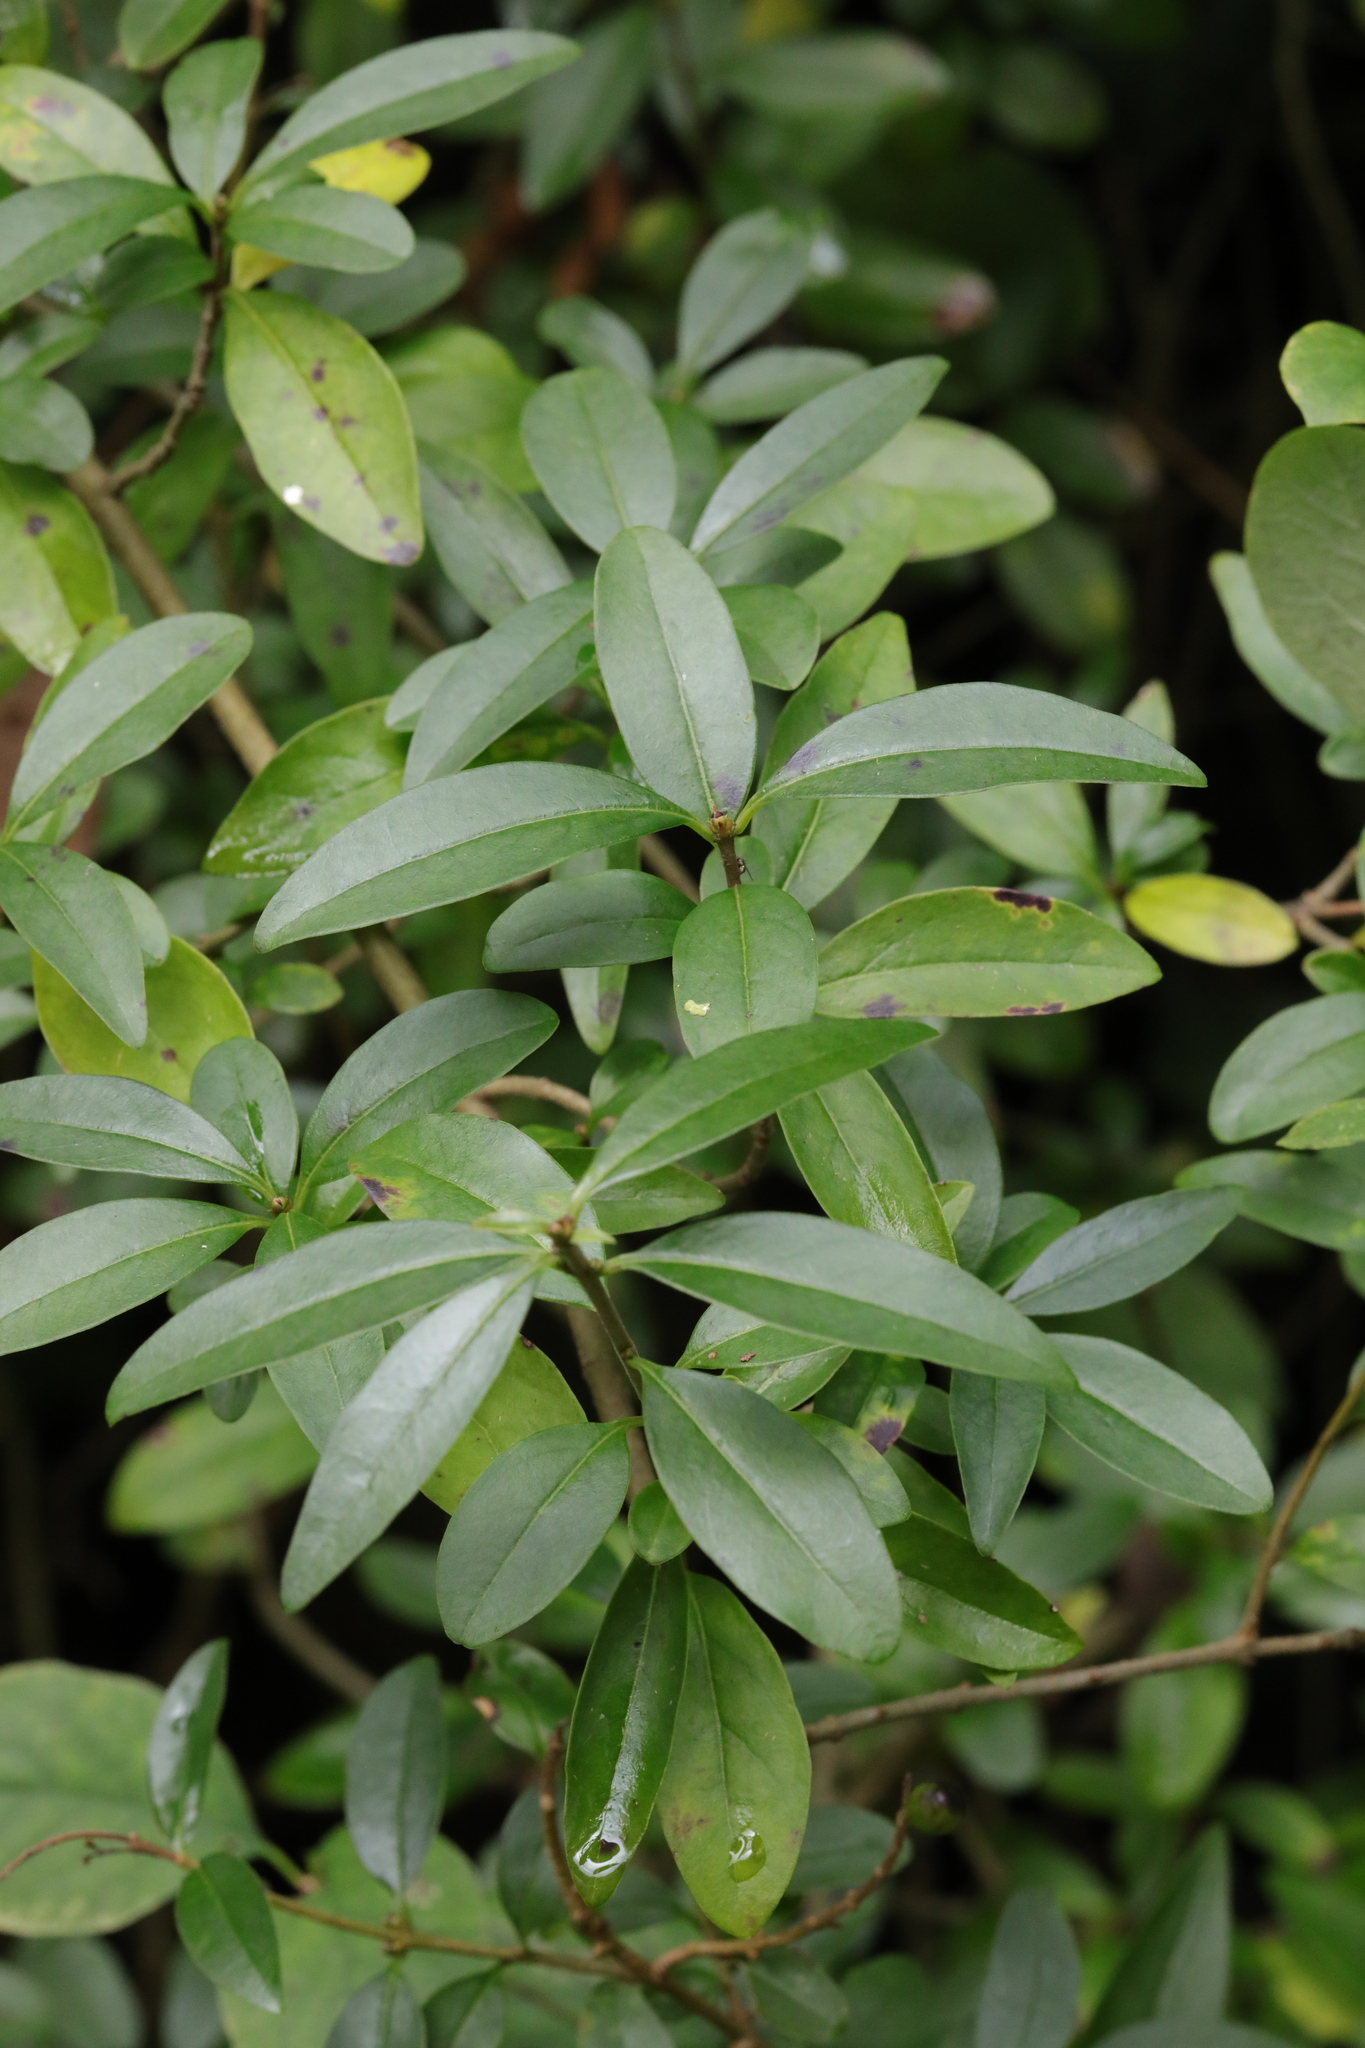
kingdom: Plantae
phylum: Tracheophyta
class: Magnoliopsida
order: Lamiales
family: Oleaceae
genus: Ligustrum
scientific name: Ligustrum vulgare
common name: Wild privet
